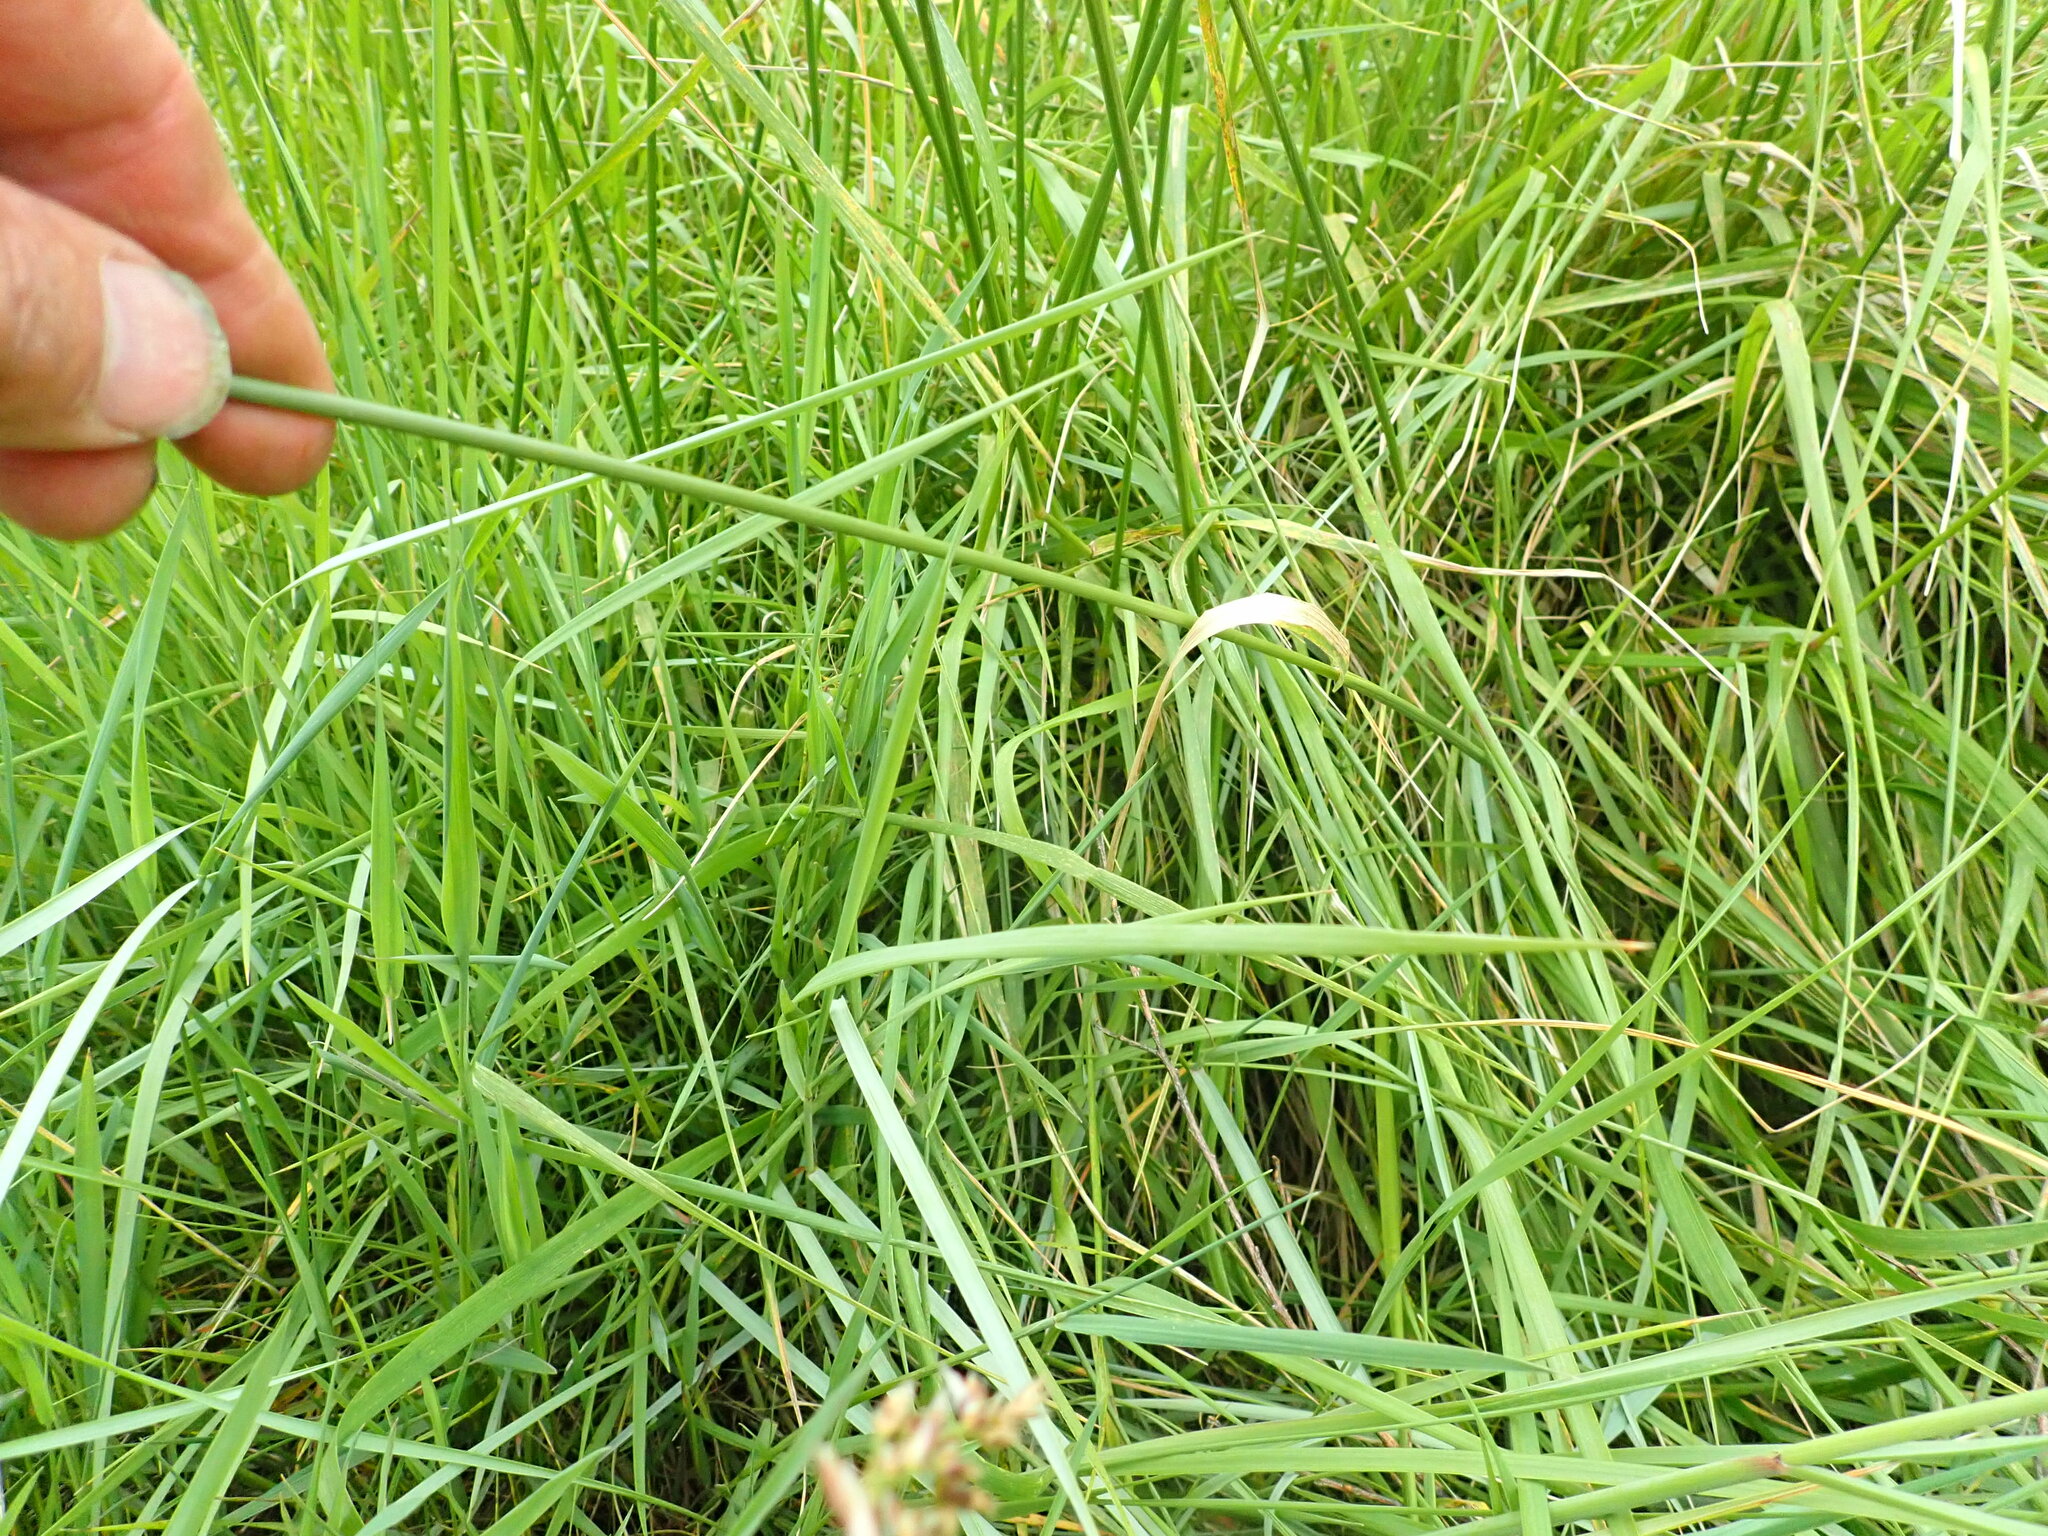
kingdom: Plantae
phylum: Tracheophyta
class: Liliopsida
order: Poales
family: Poaceae
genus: Lolium
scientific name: Lolium arundinaceum
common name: Reed fescue
